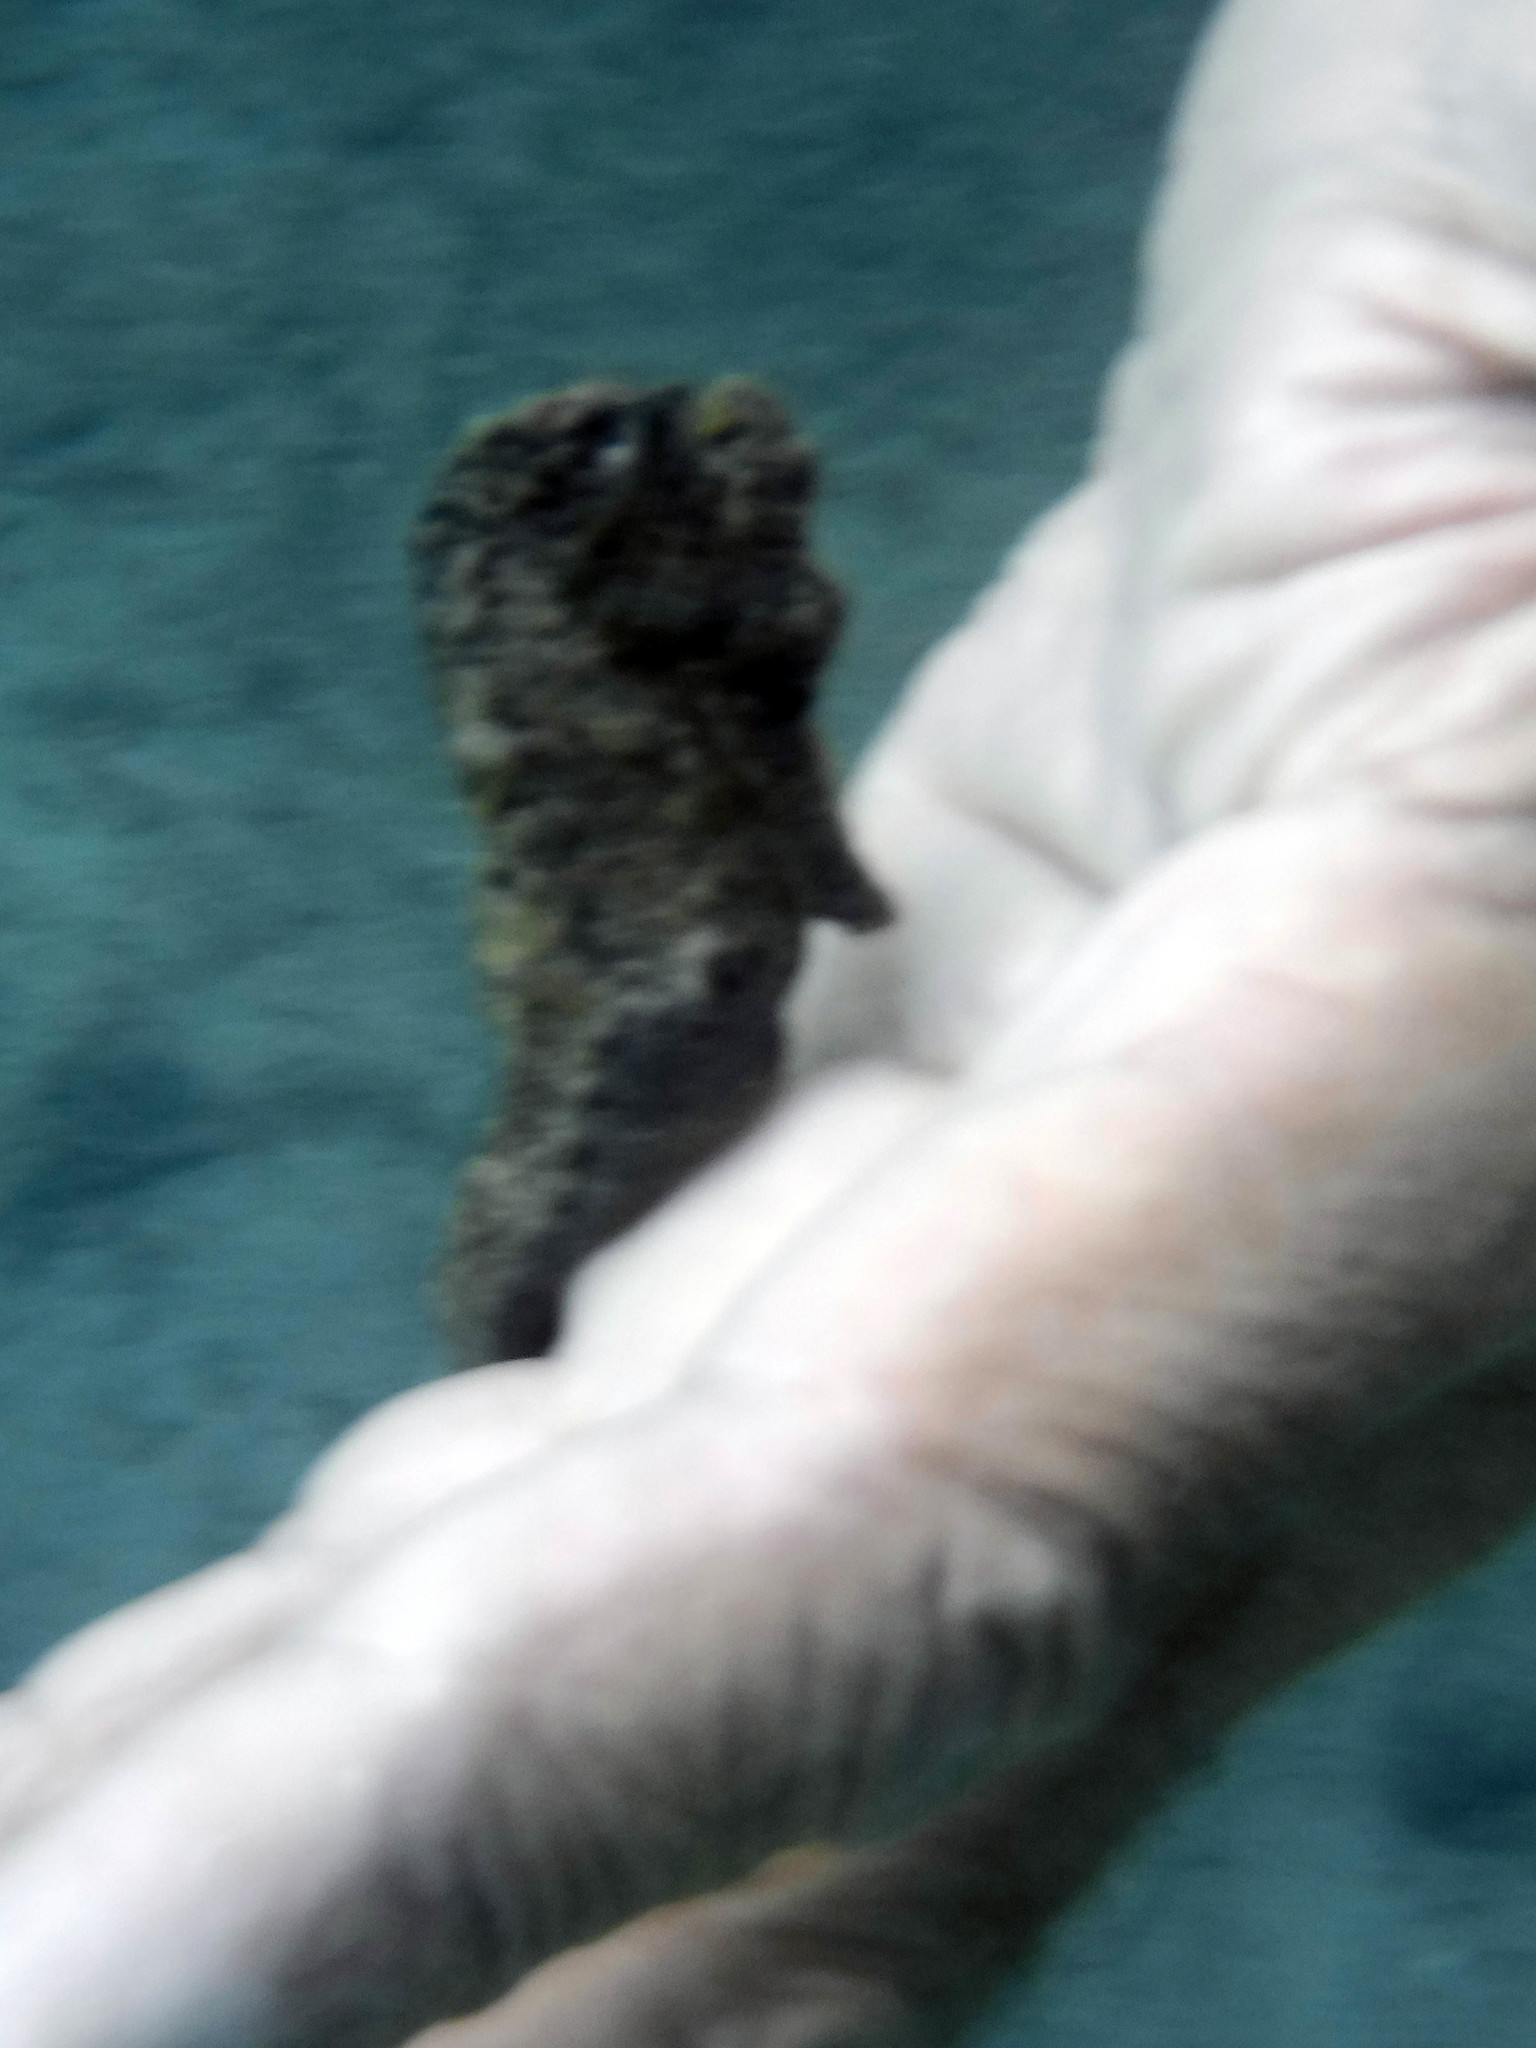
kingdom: Animalia
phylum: Chordata
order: Syngnathiformes
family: Syngnathidae
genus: Hippocampus
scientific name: Hippocampus reidi
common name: Slender seahorse
